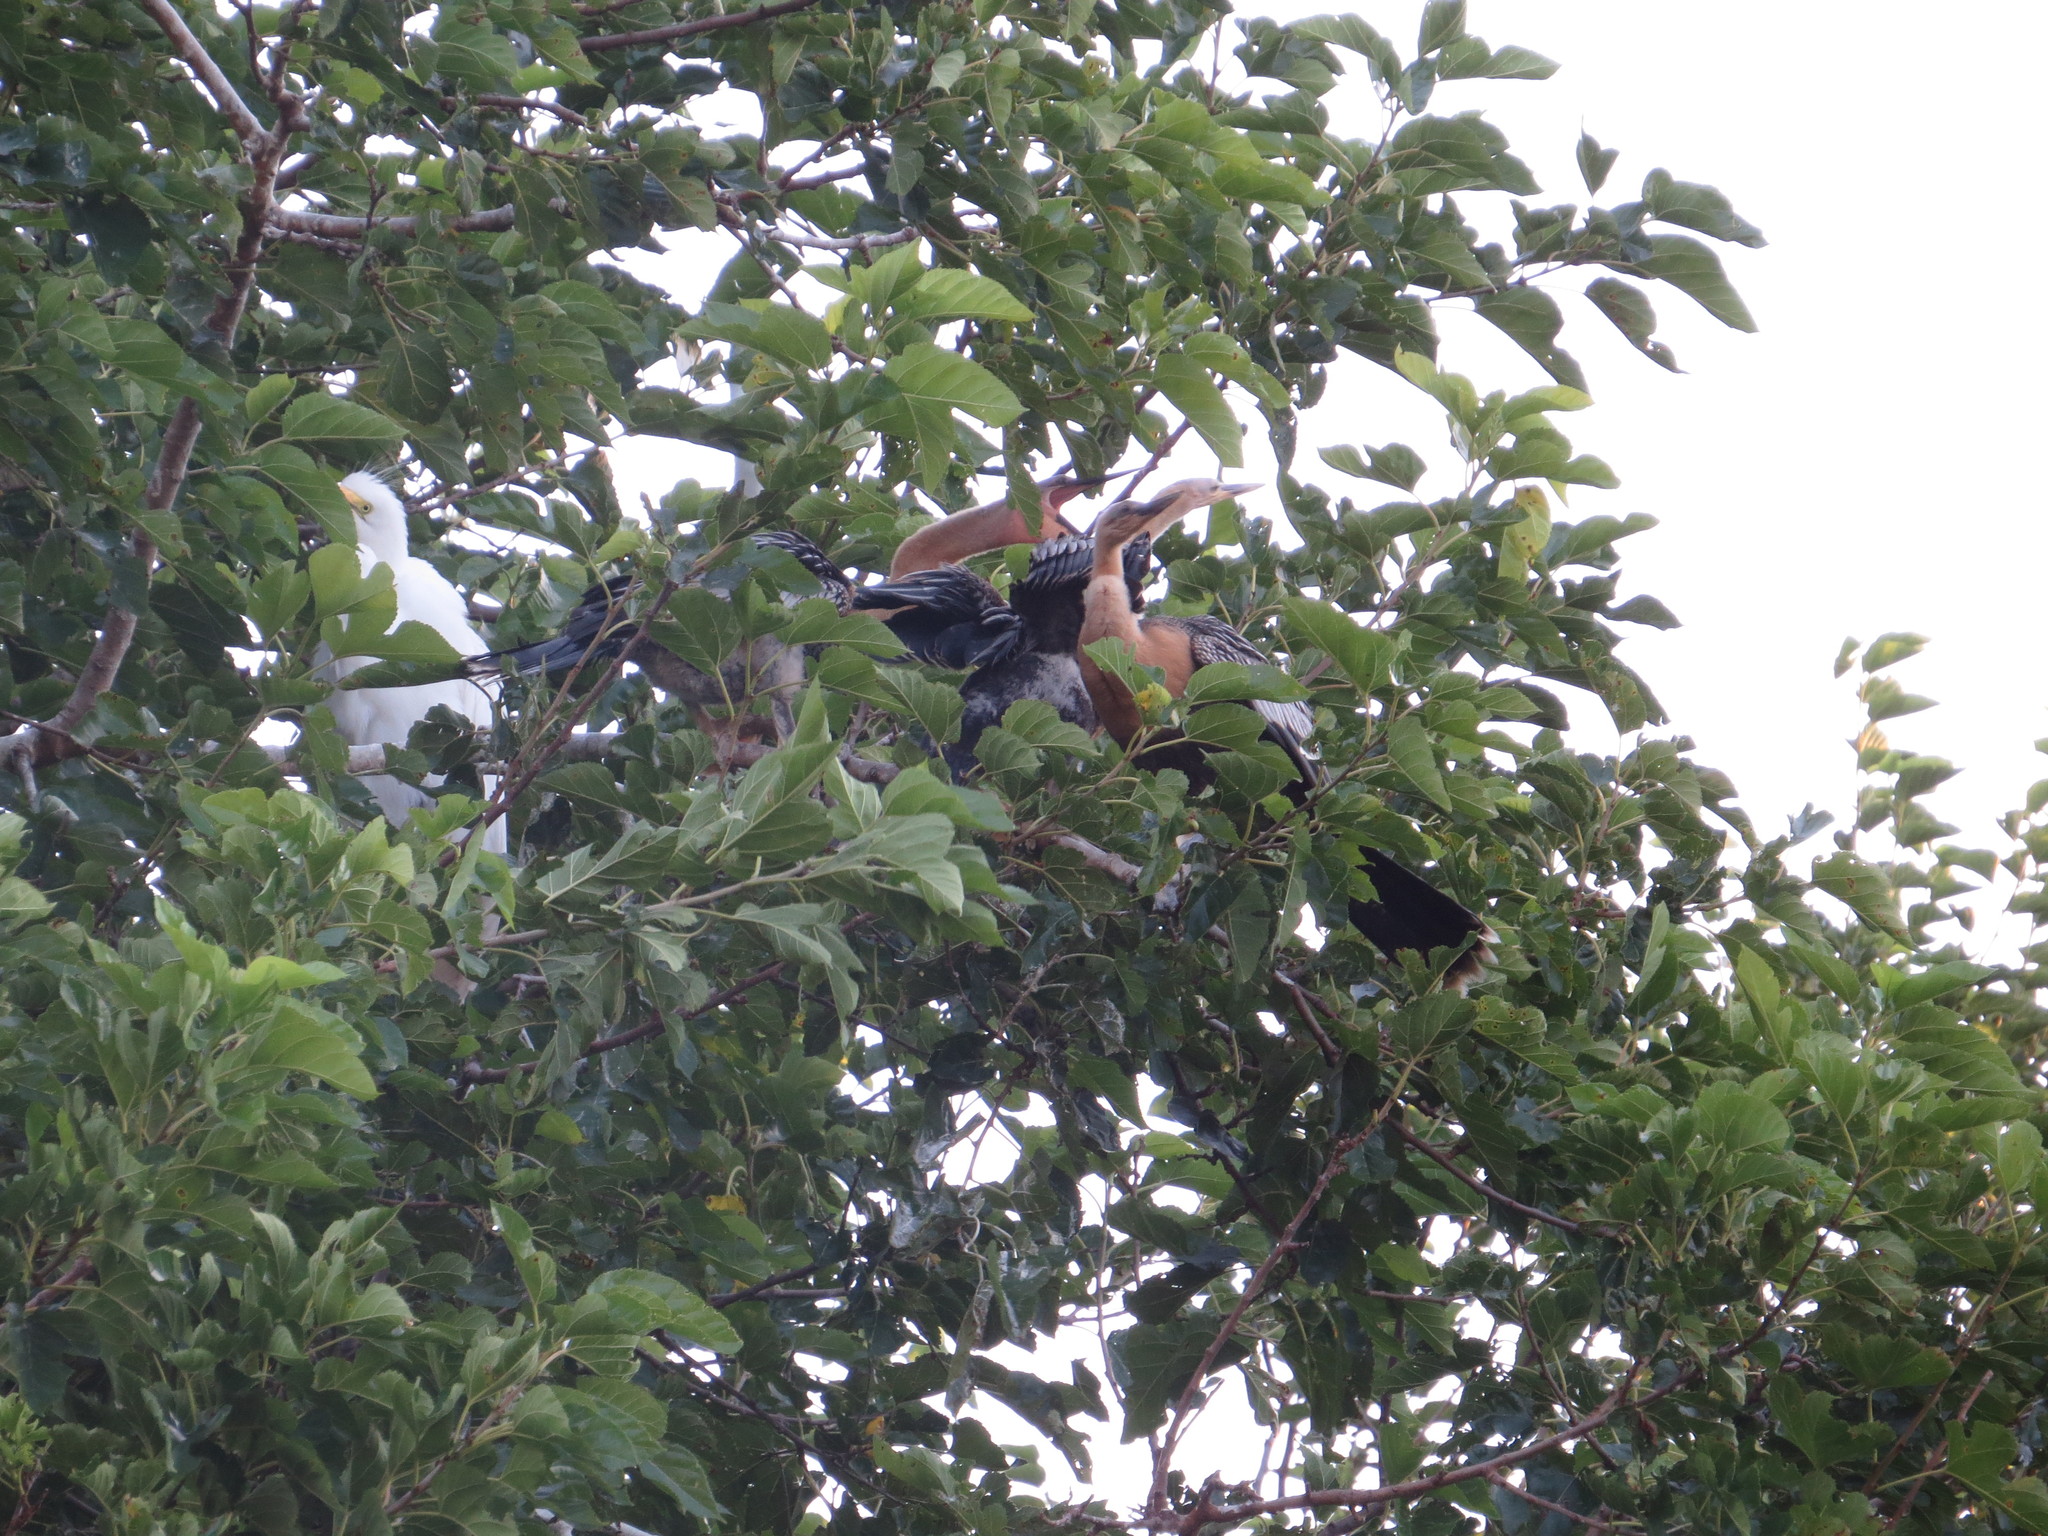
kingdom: Animalia
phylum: Chordata
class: Aves
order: Suliformes
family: Anhingidae
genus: Anhinga
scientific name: Anhinga anhinga
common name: Anhinga
